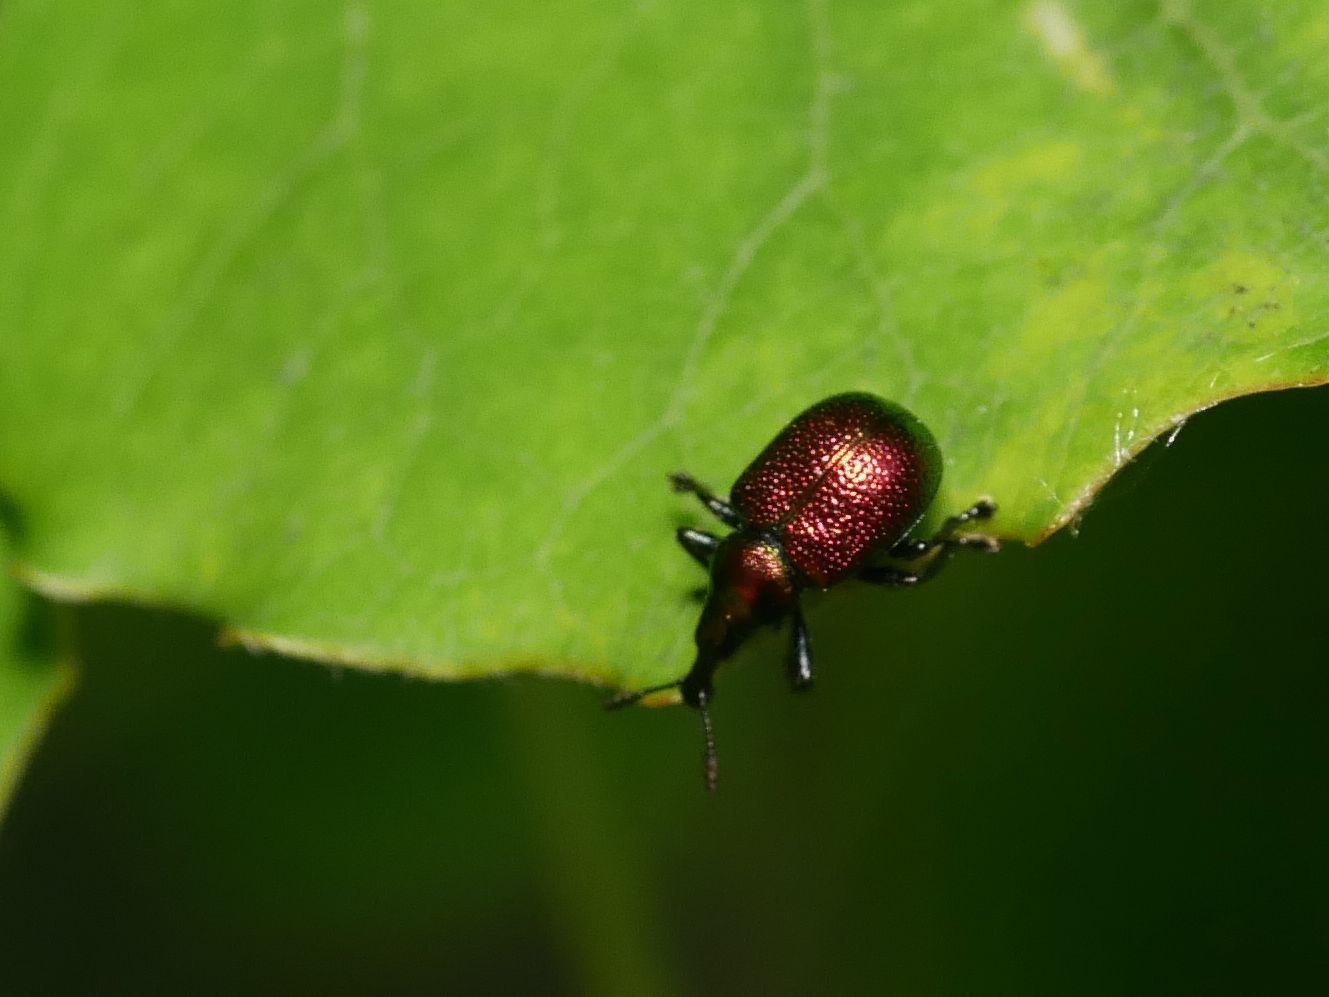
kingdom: Animalia
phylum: Arthropoda
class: Insecta
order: Coleoptera
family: Attelabidae
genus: Byctiscus
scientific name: Byctiscus populi
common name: Leaf-rolling weevil
